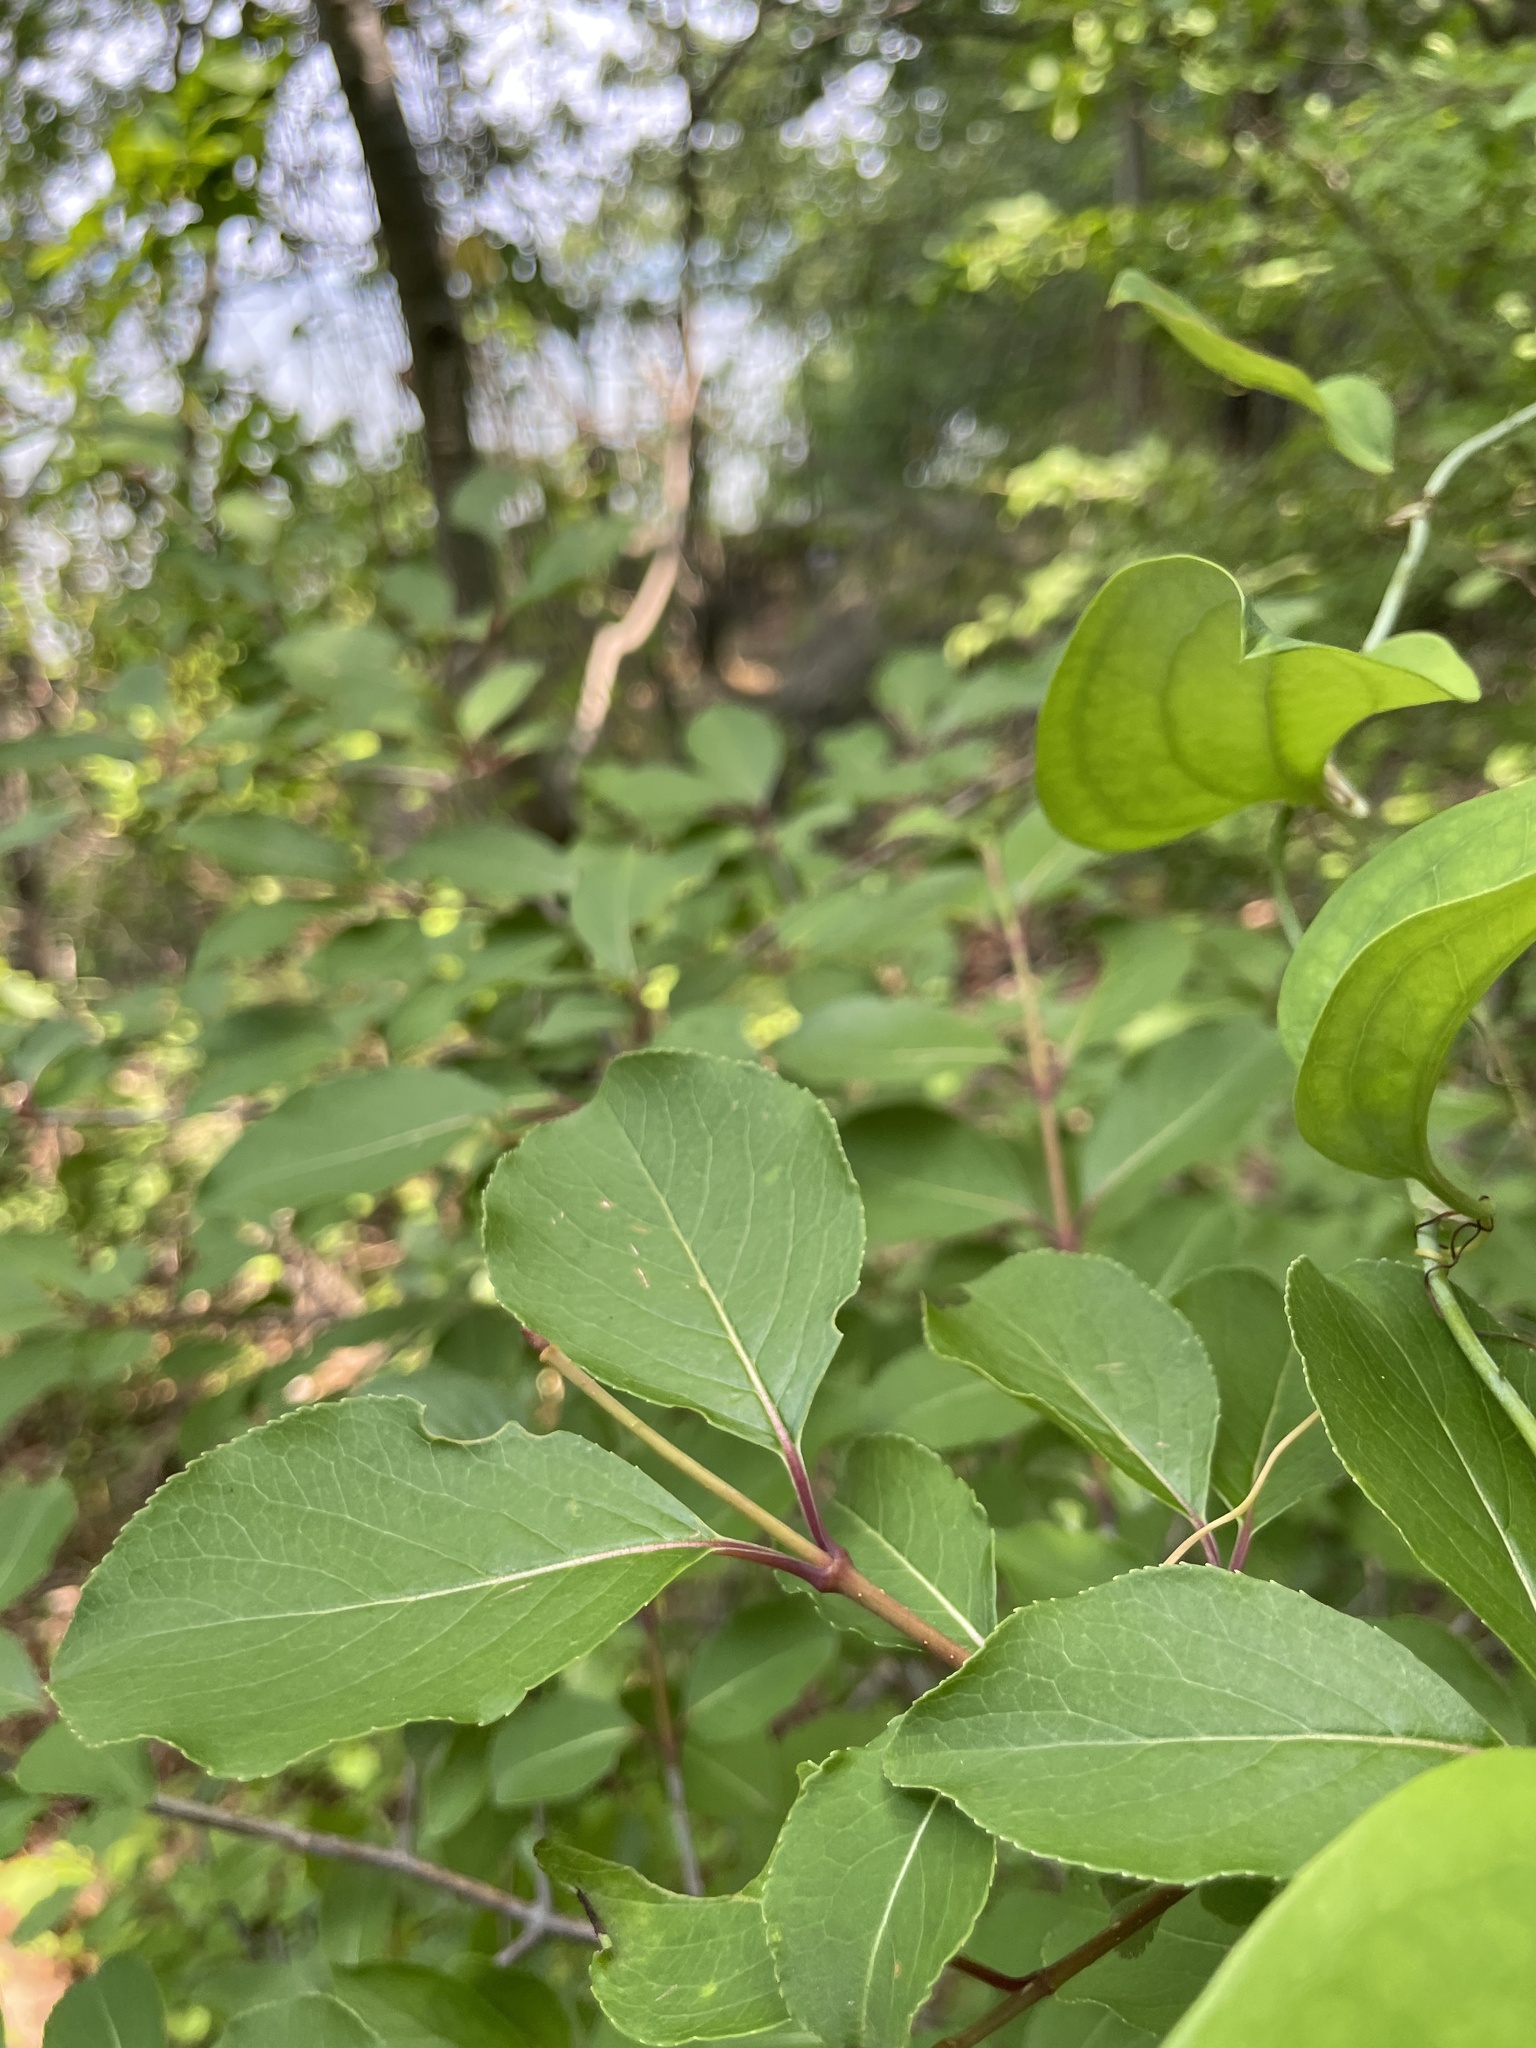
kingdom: Plantae
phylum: Tracheophyta
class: Magnoliopsida
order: Dipsacales
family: Viburnaceae
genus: Viburnum
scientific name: Viburnum prunifolium
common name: Black haw
